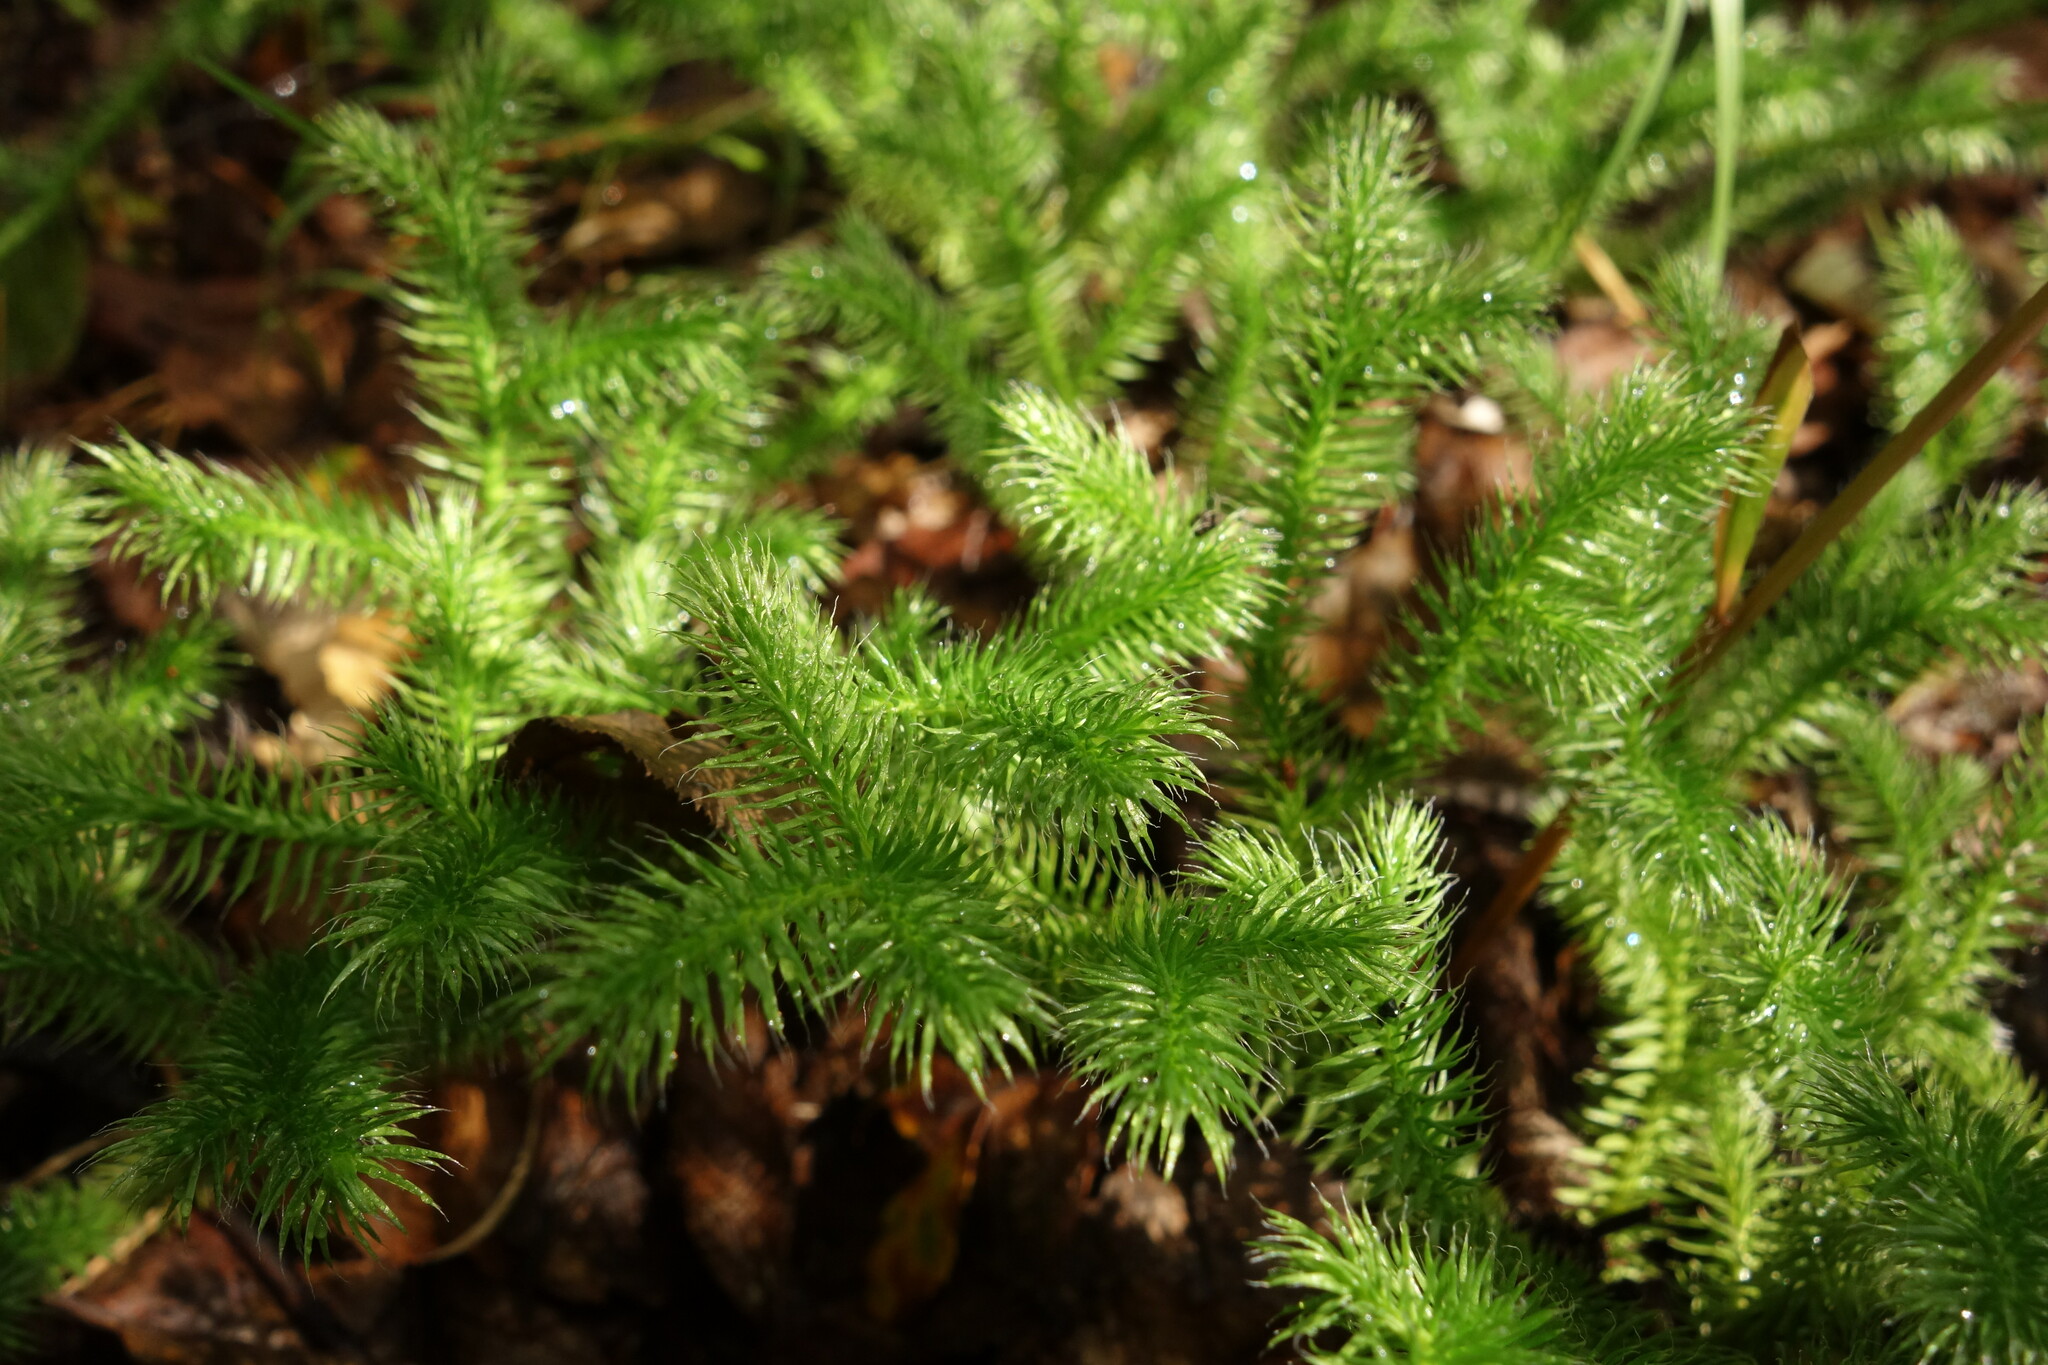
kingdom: Plantae
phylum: Tracheophyta
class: Lycopodiopsida
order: Lycopodiales
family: Lycopodiaceae
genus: Lycopodium
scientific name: Lycopodium clavatum
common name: Stag's-horn clubmoss
